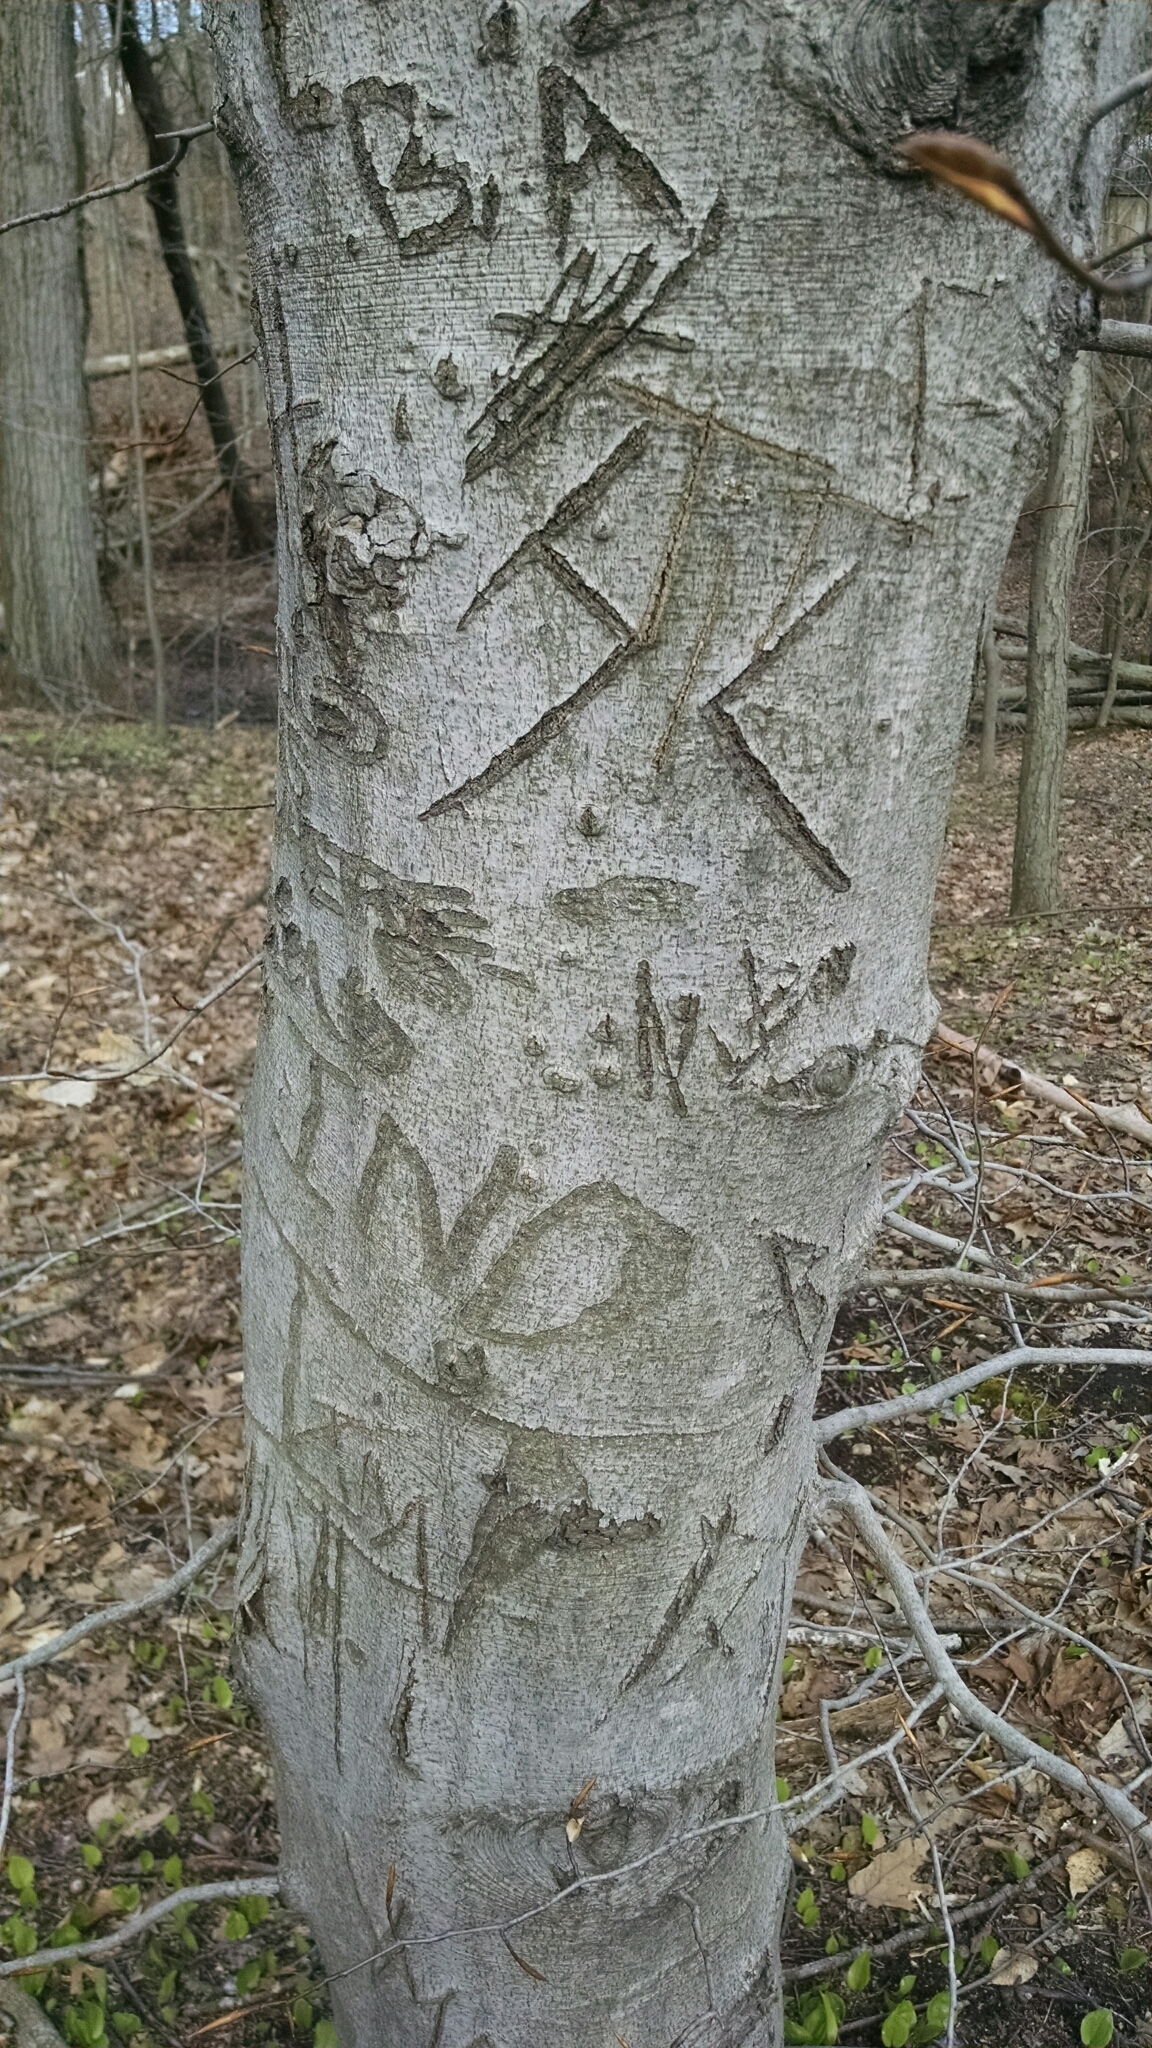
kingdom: Plantae
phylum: Tracheophyta
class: Magnoliopsida
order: Fagales
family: Fagaceae
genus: Fagus
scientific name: Fagus grandifolia
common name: American beech
